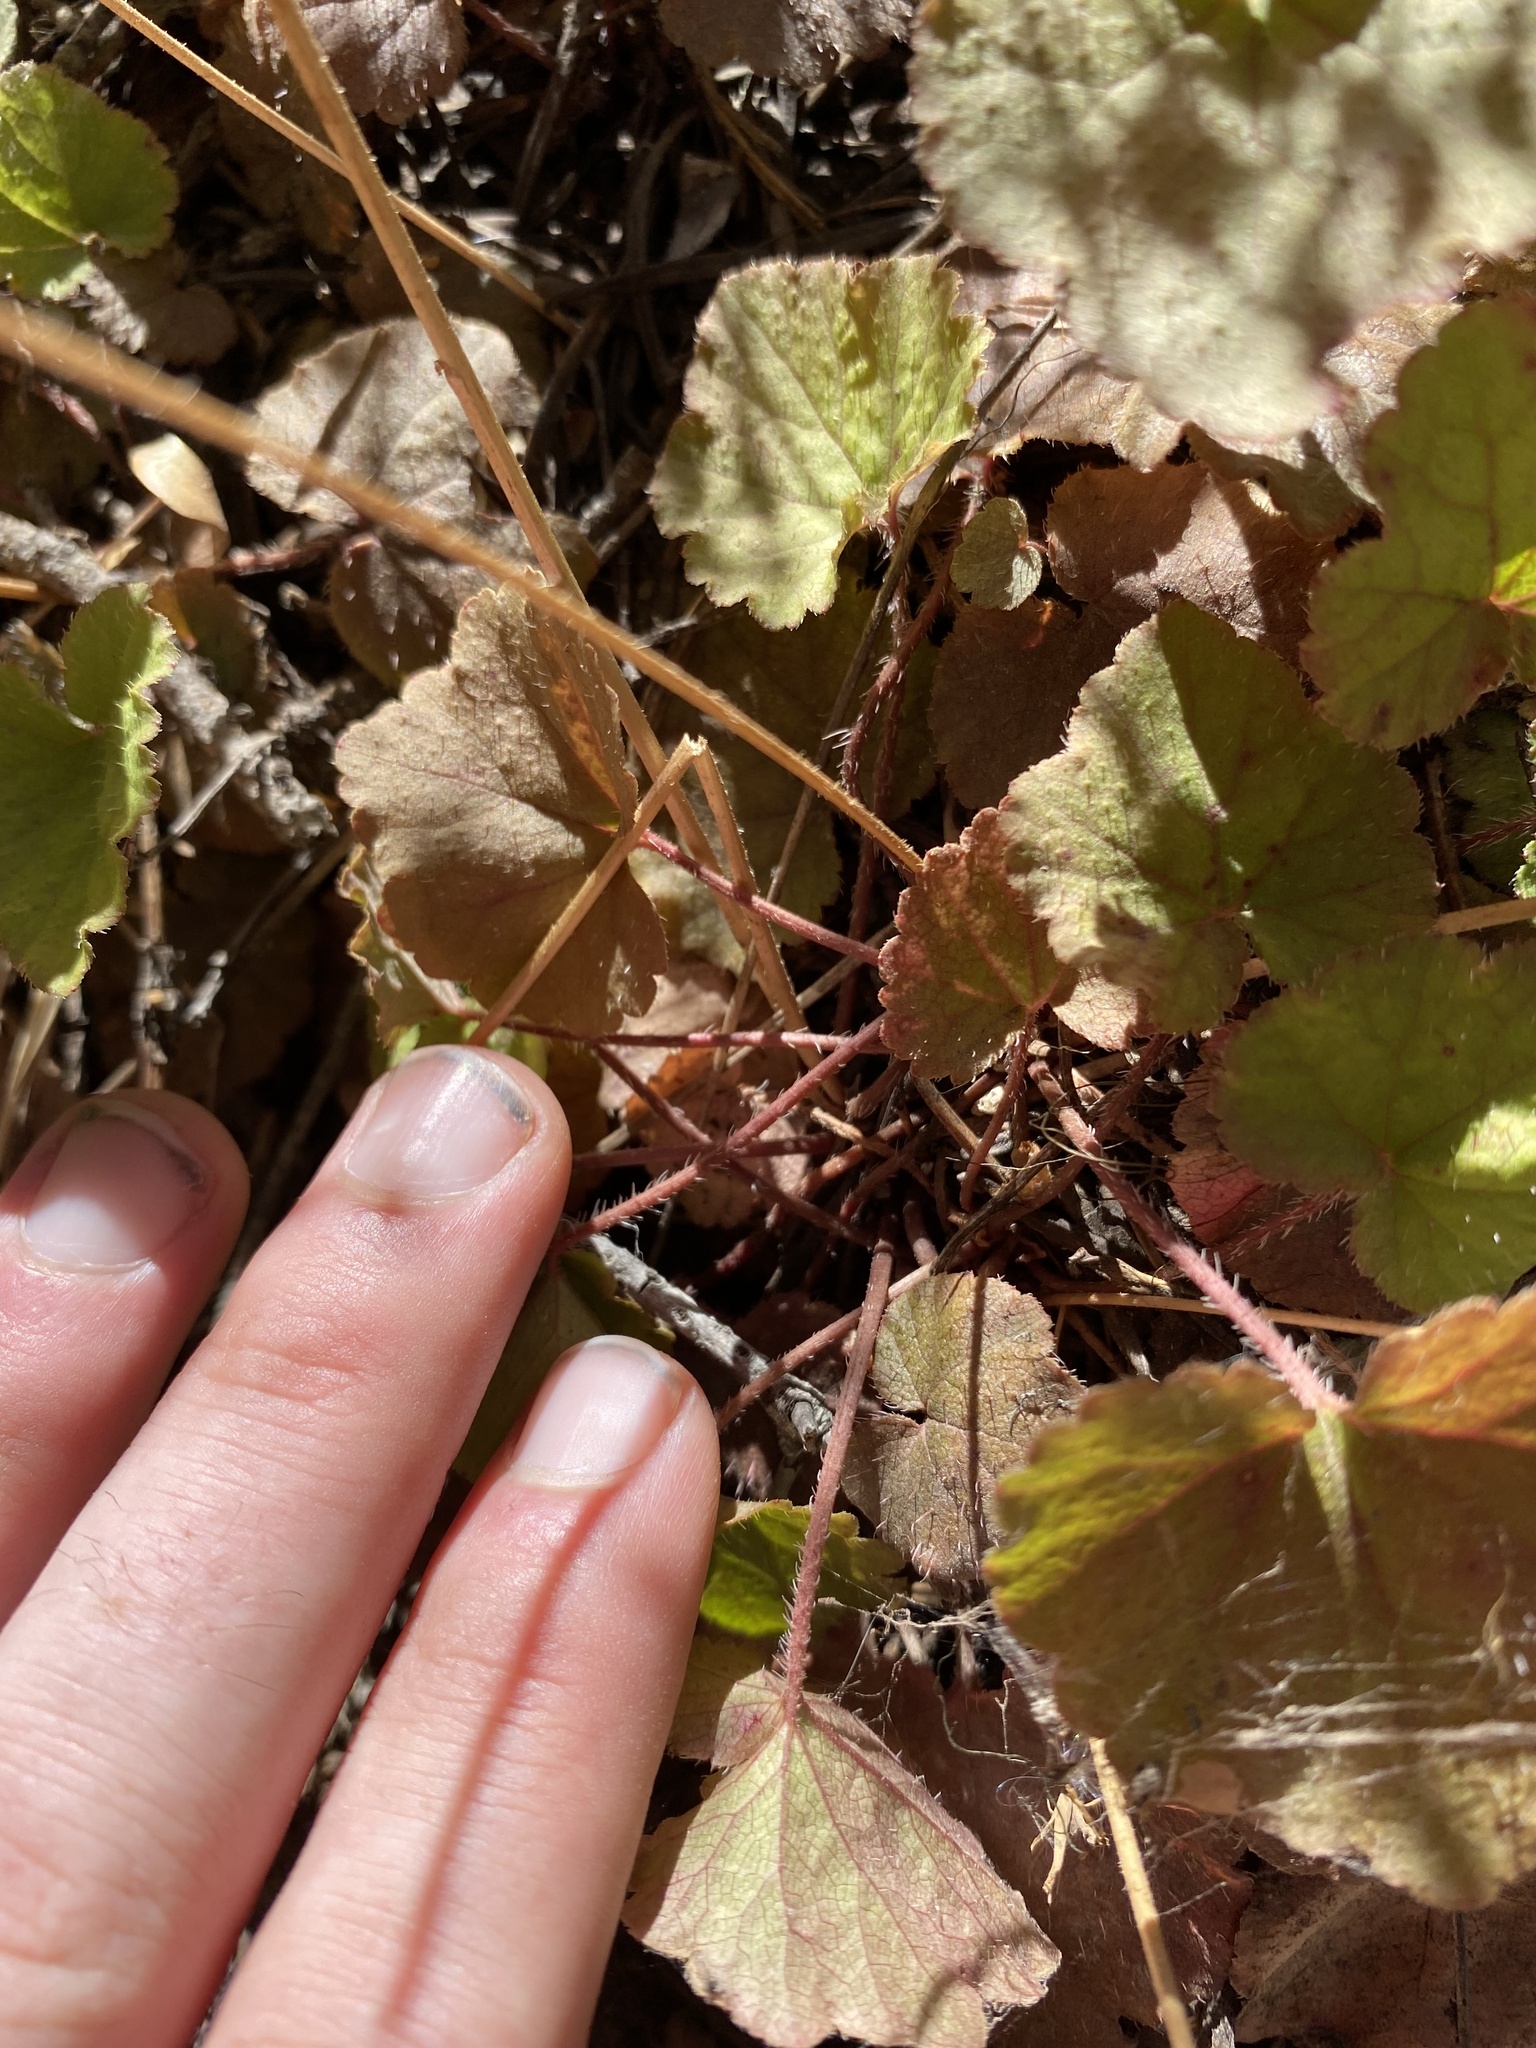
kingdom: Plantae
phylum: Tracheophyta
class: Magnoliopsida
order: Saxifragales
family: Saxifragaceae
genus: Ozomelis
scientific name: Ozomelis trifida
